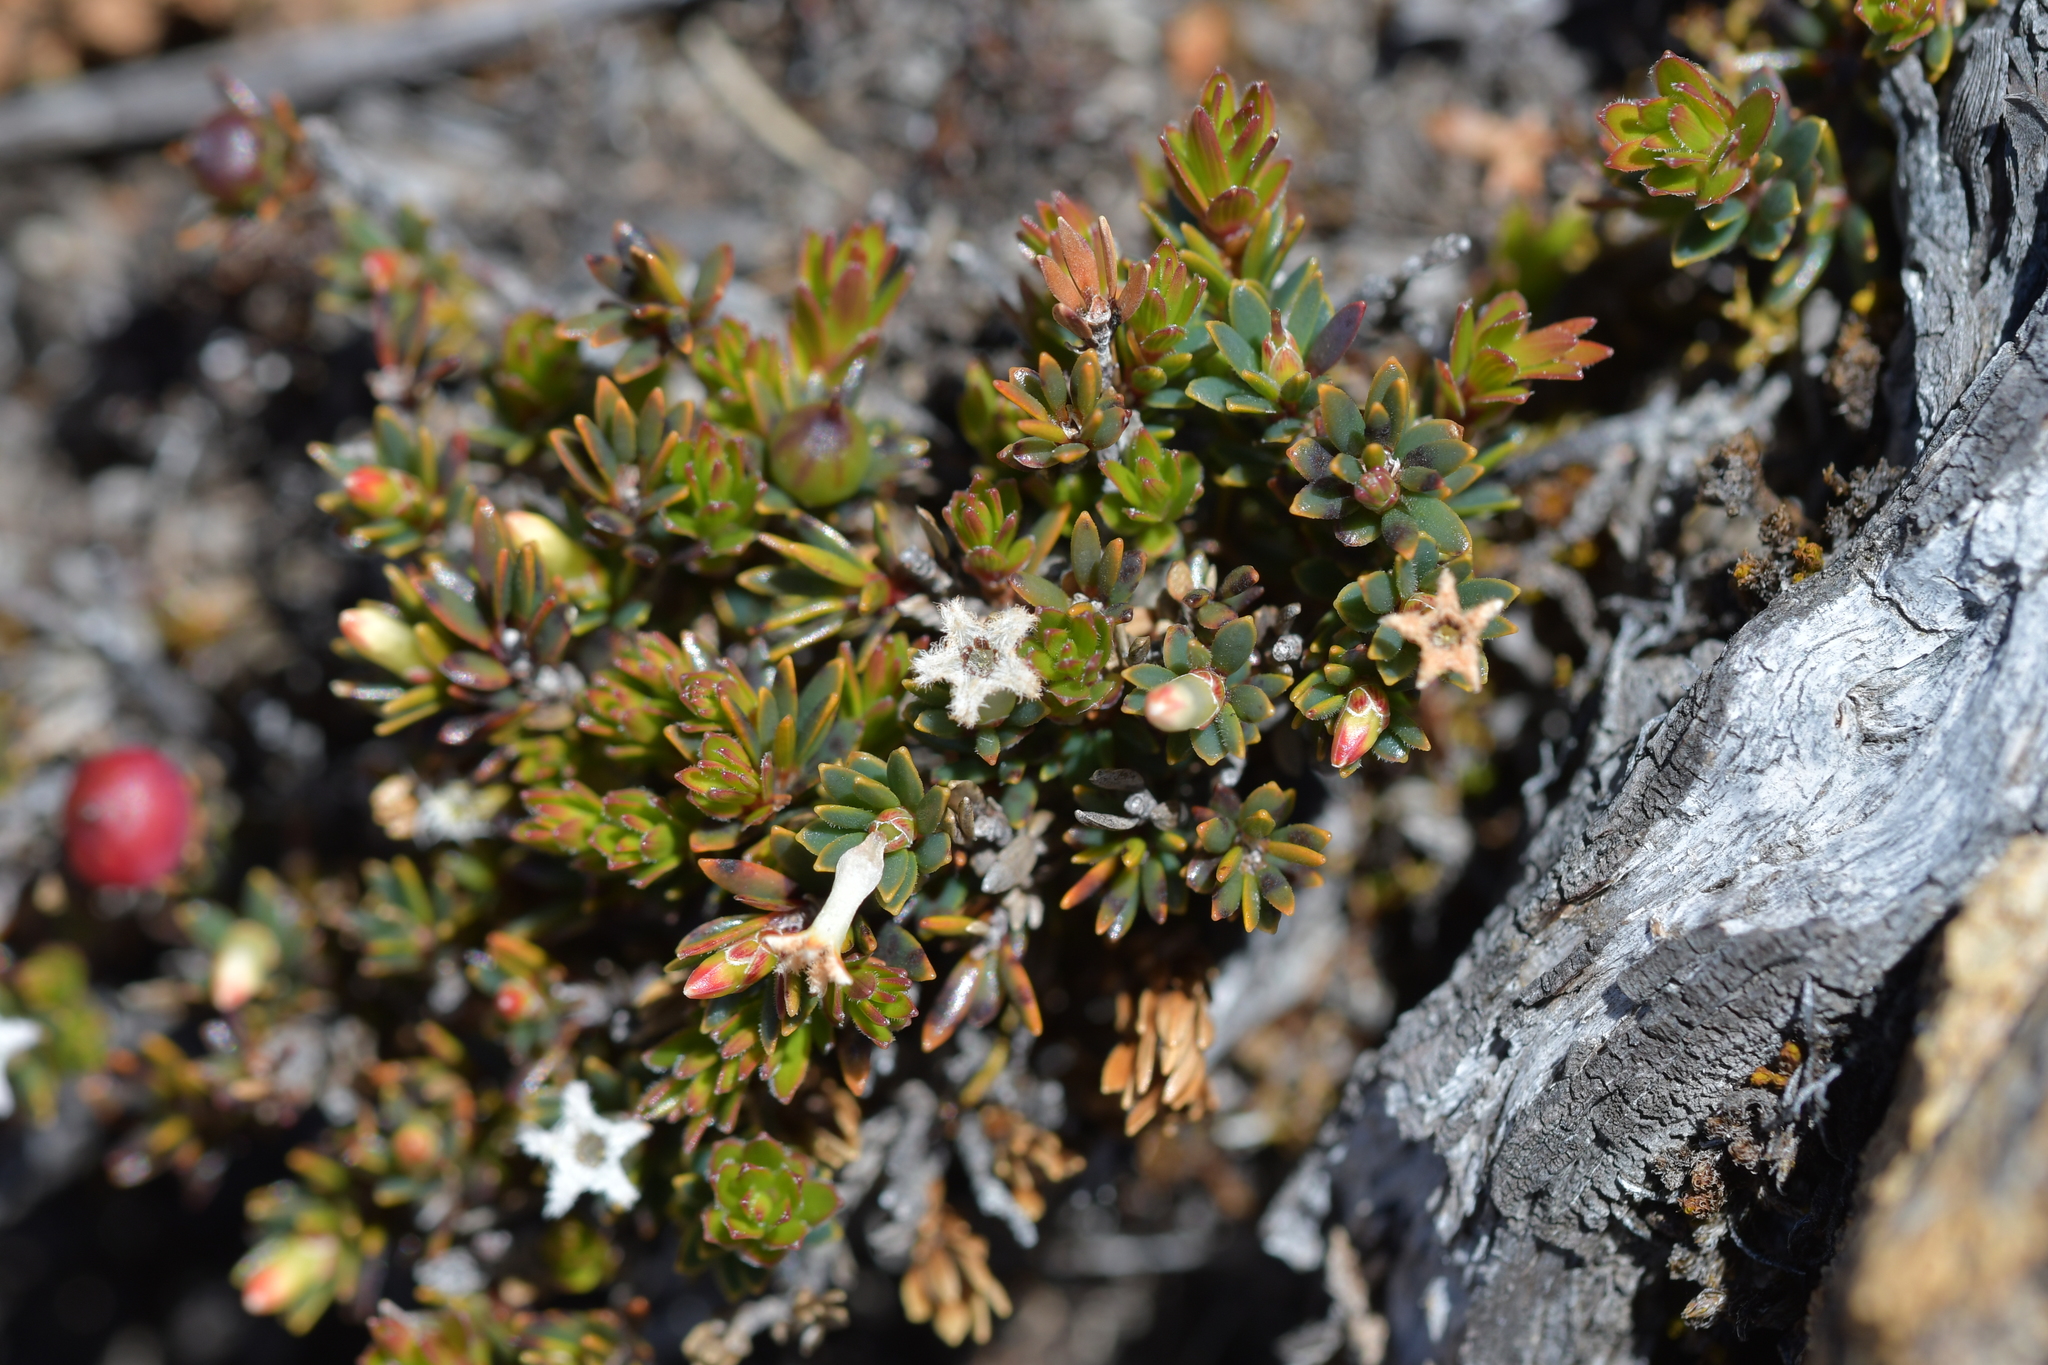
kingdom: Plantae
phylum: Tracheophyta
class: Magnoliopsida
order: Ericales
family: Ericaceae
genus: Pentachondra
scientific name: Pentachondra pumila
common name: Carpet-heath
